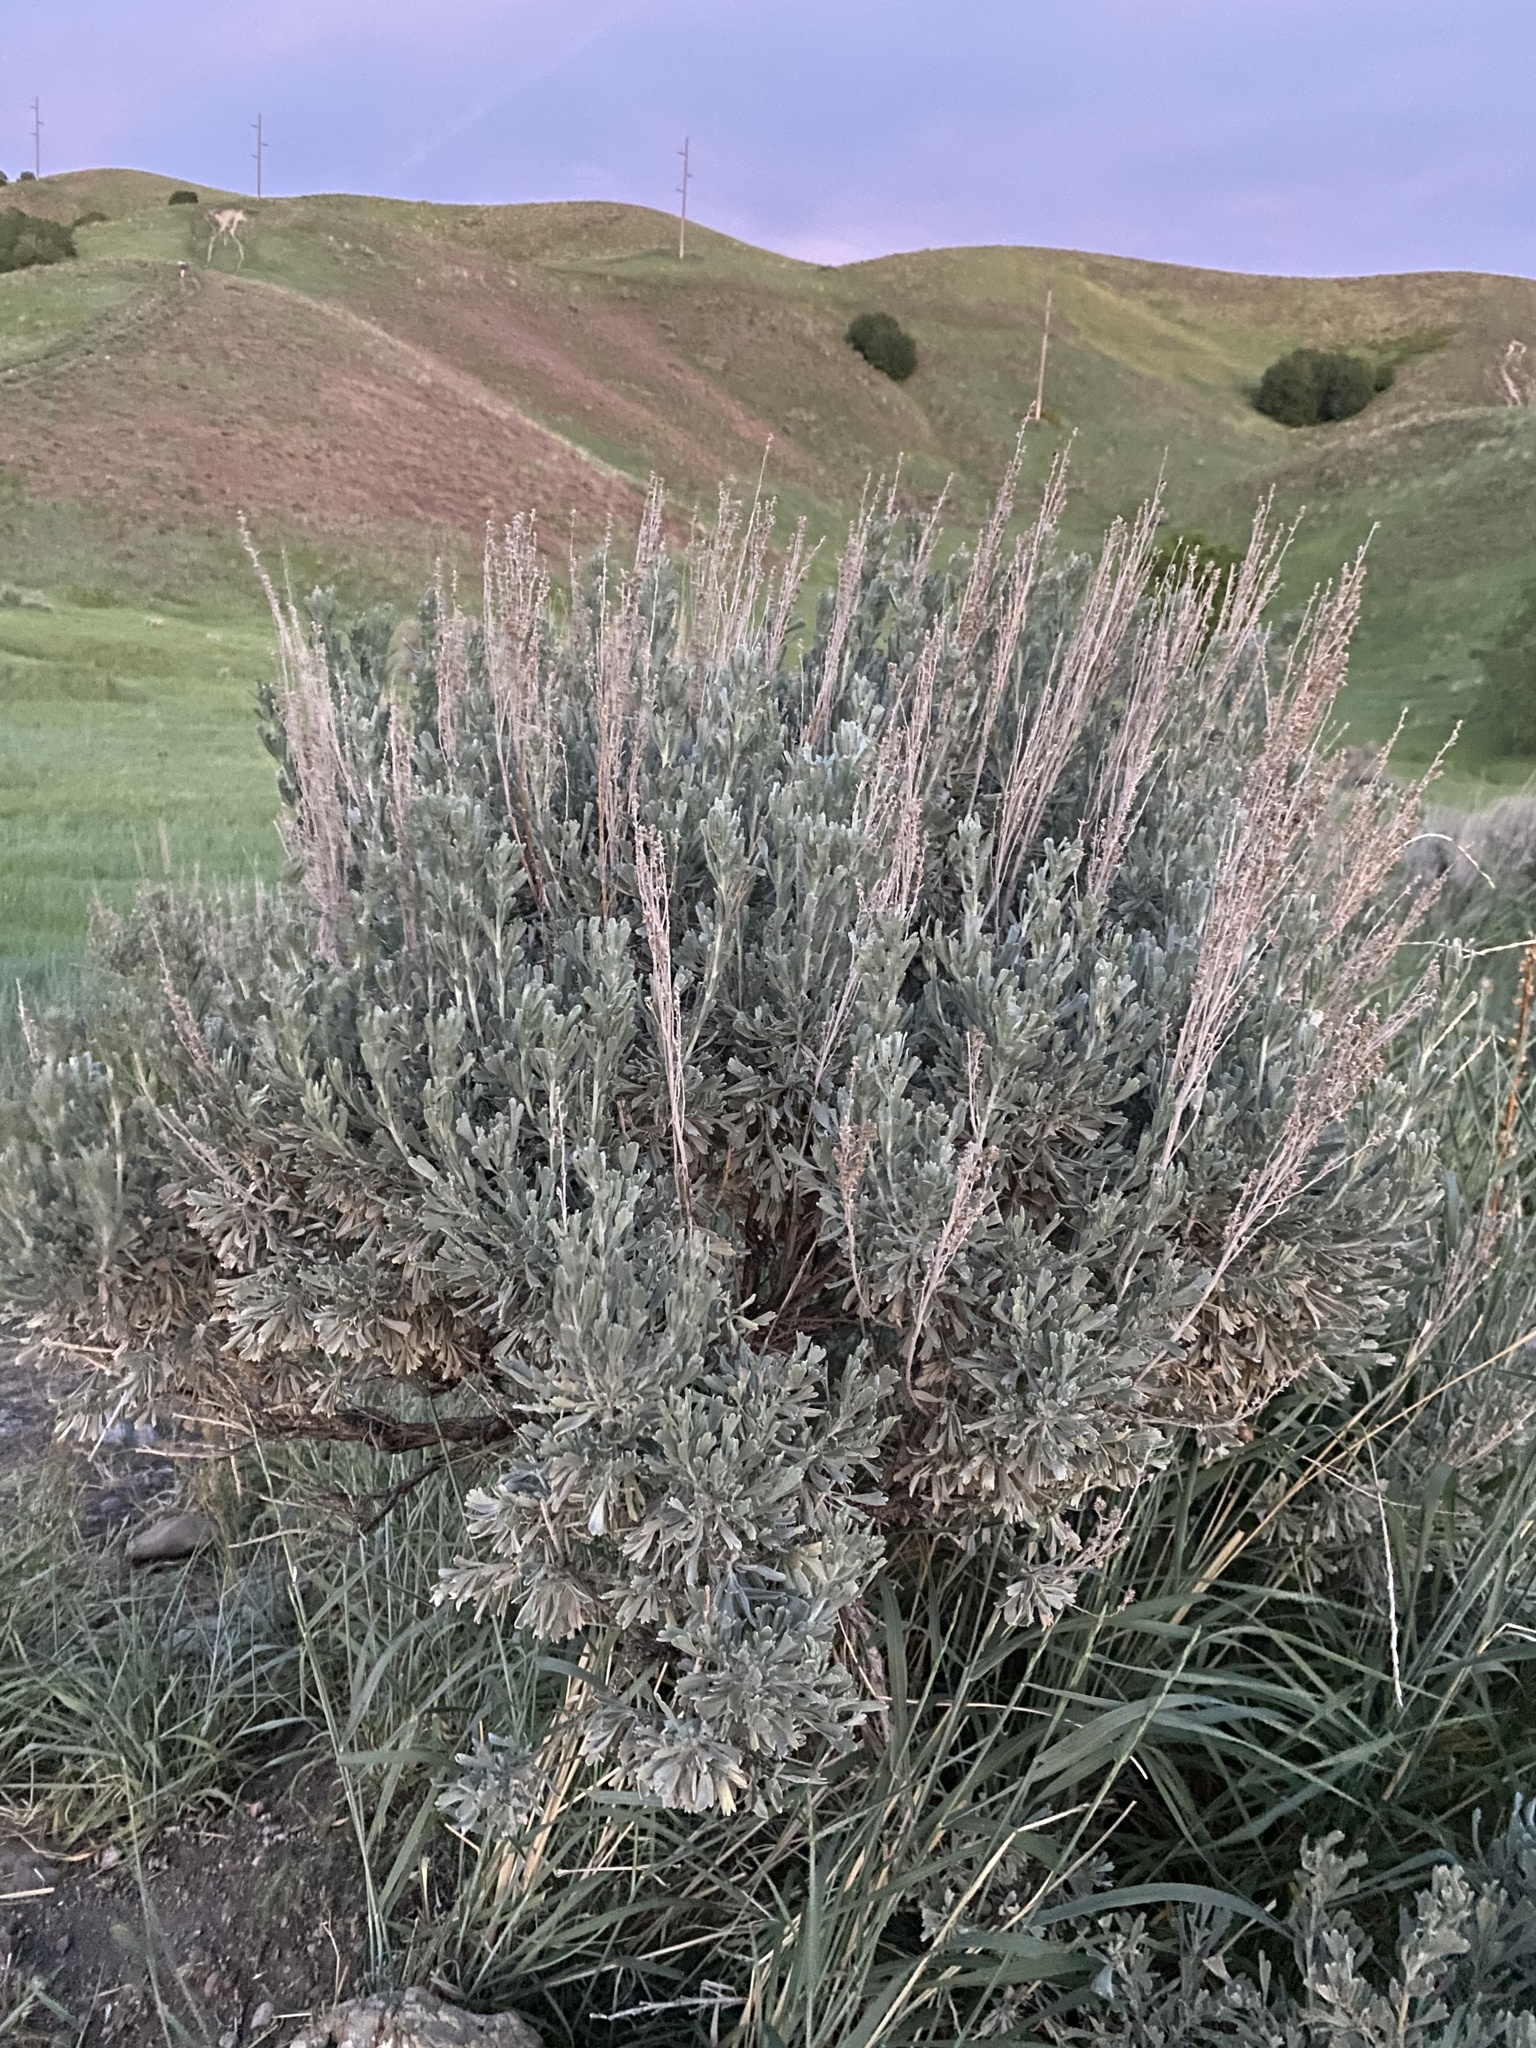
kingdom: Plantae
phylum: Tracheophyta
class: Magnoliopsida
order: Asterales
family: Asteraceae
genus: Artemisia
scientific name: Artemisia tridentata
